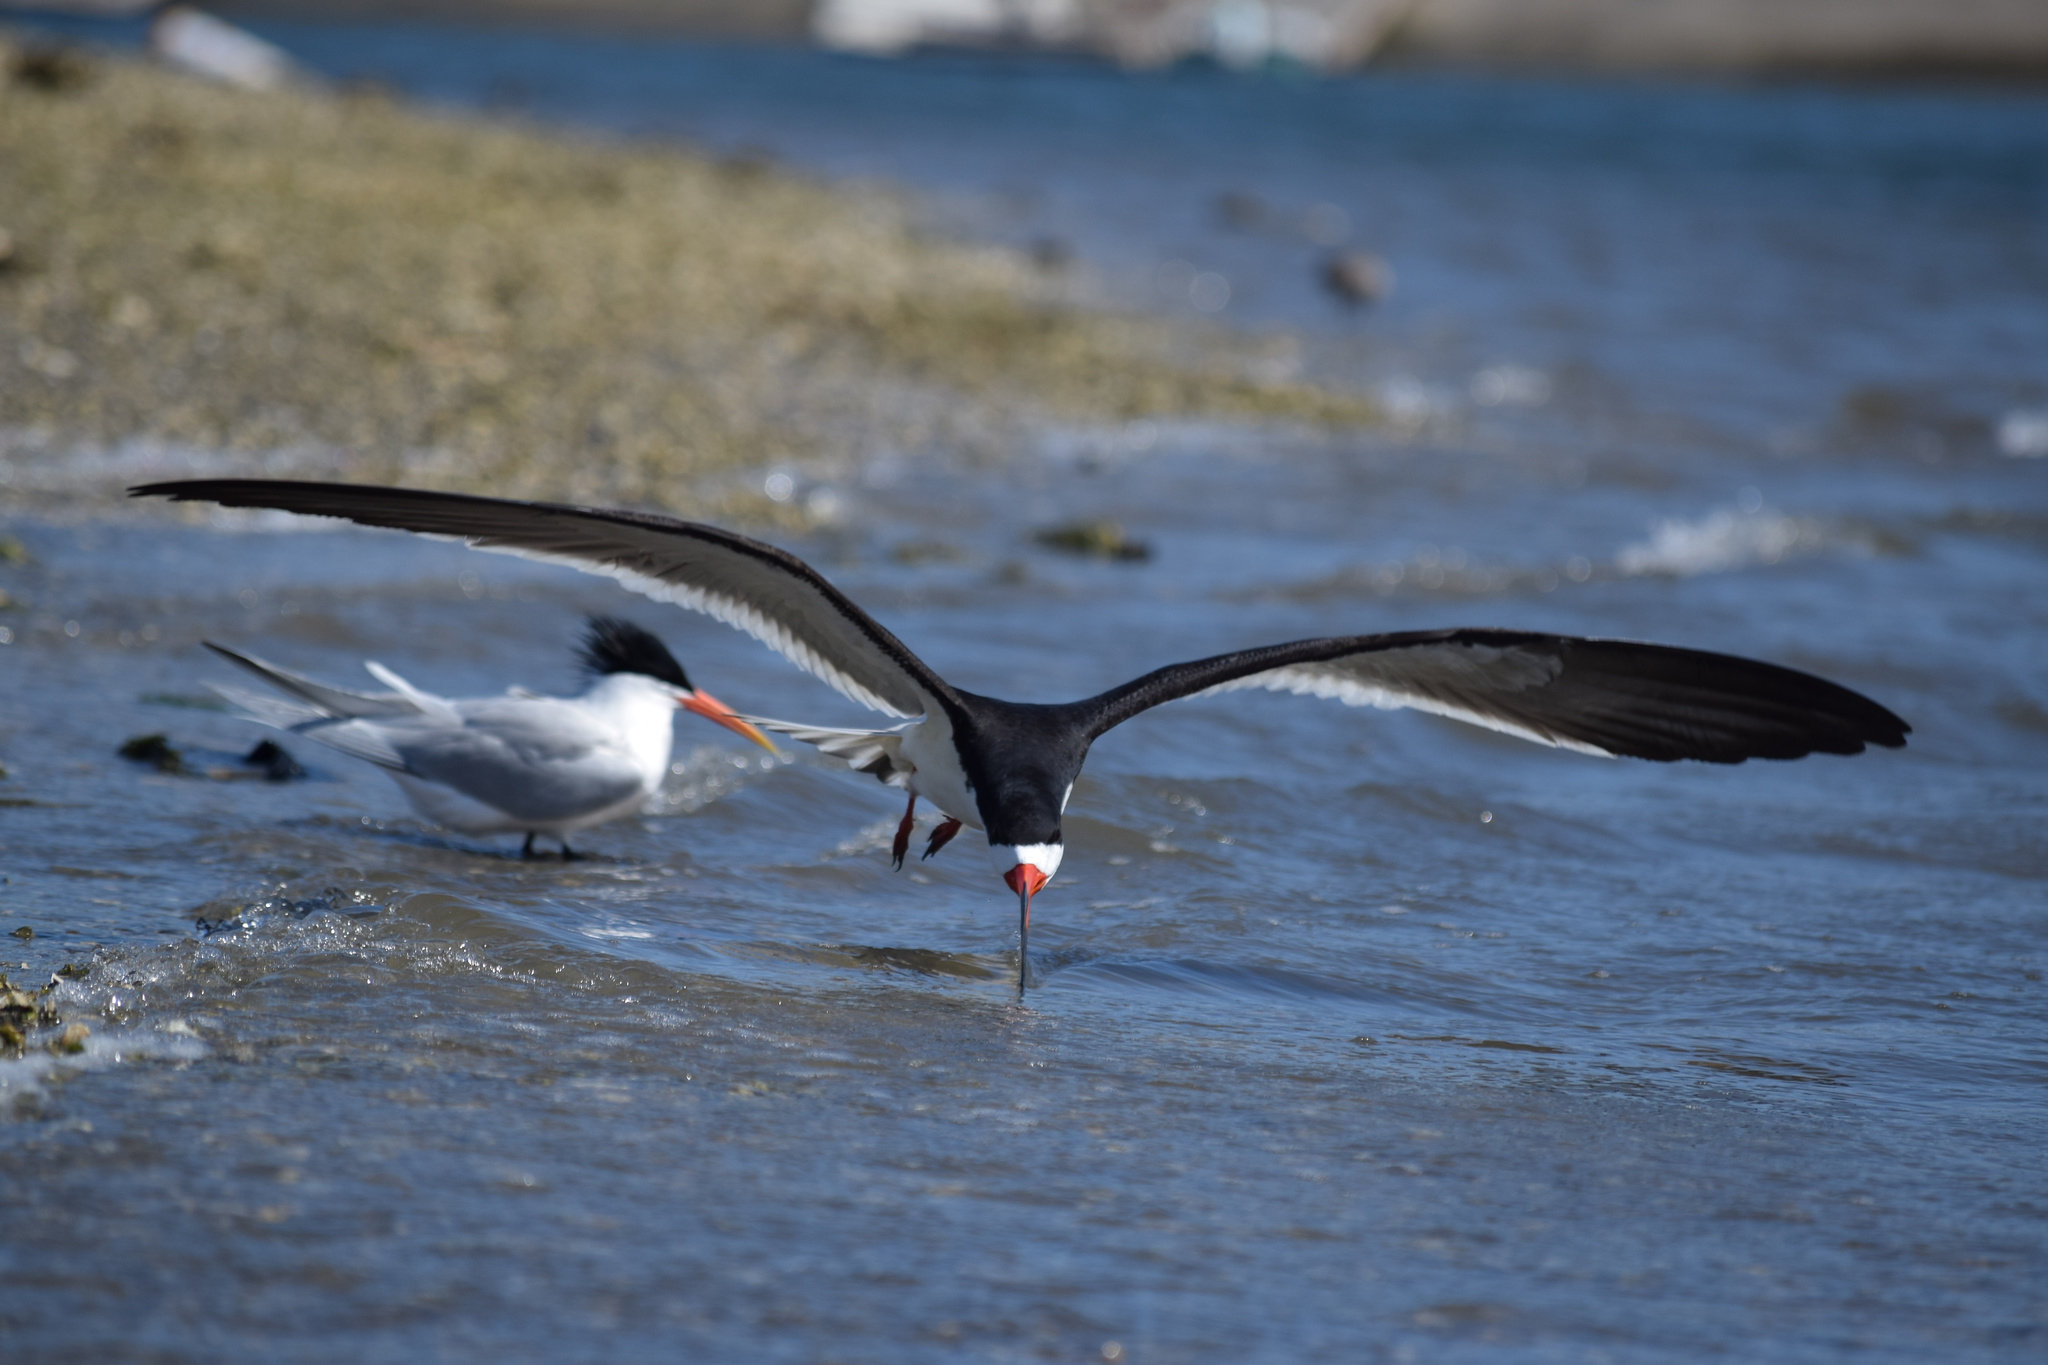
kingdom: Animalia
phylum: Chordata
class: Aves
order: Charadriiformes
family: Laridae
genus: Rynchops
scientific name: Rynchops niger
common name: Black skimmer
